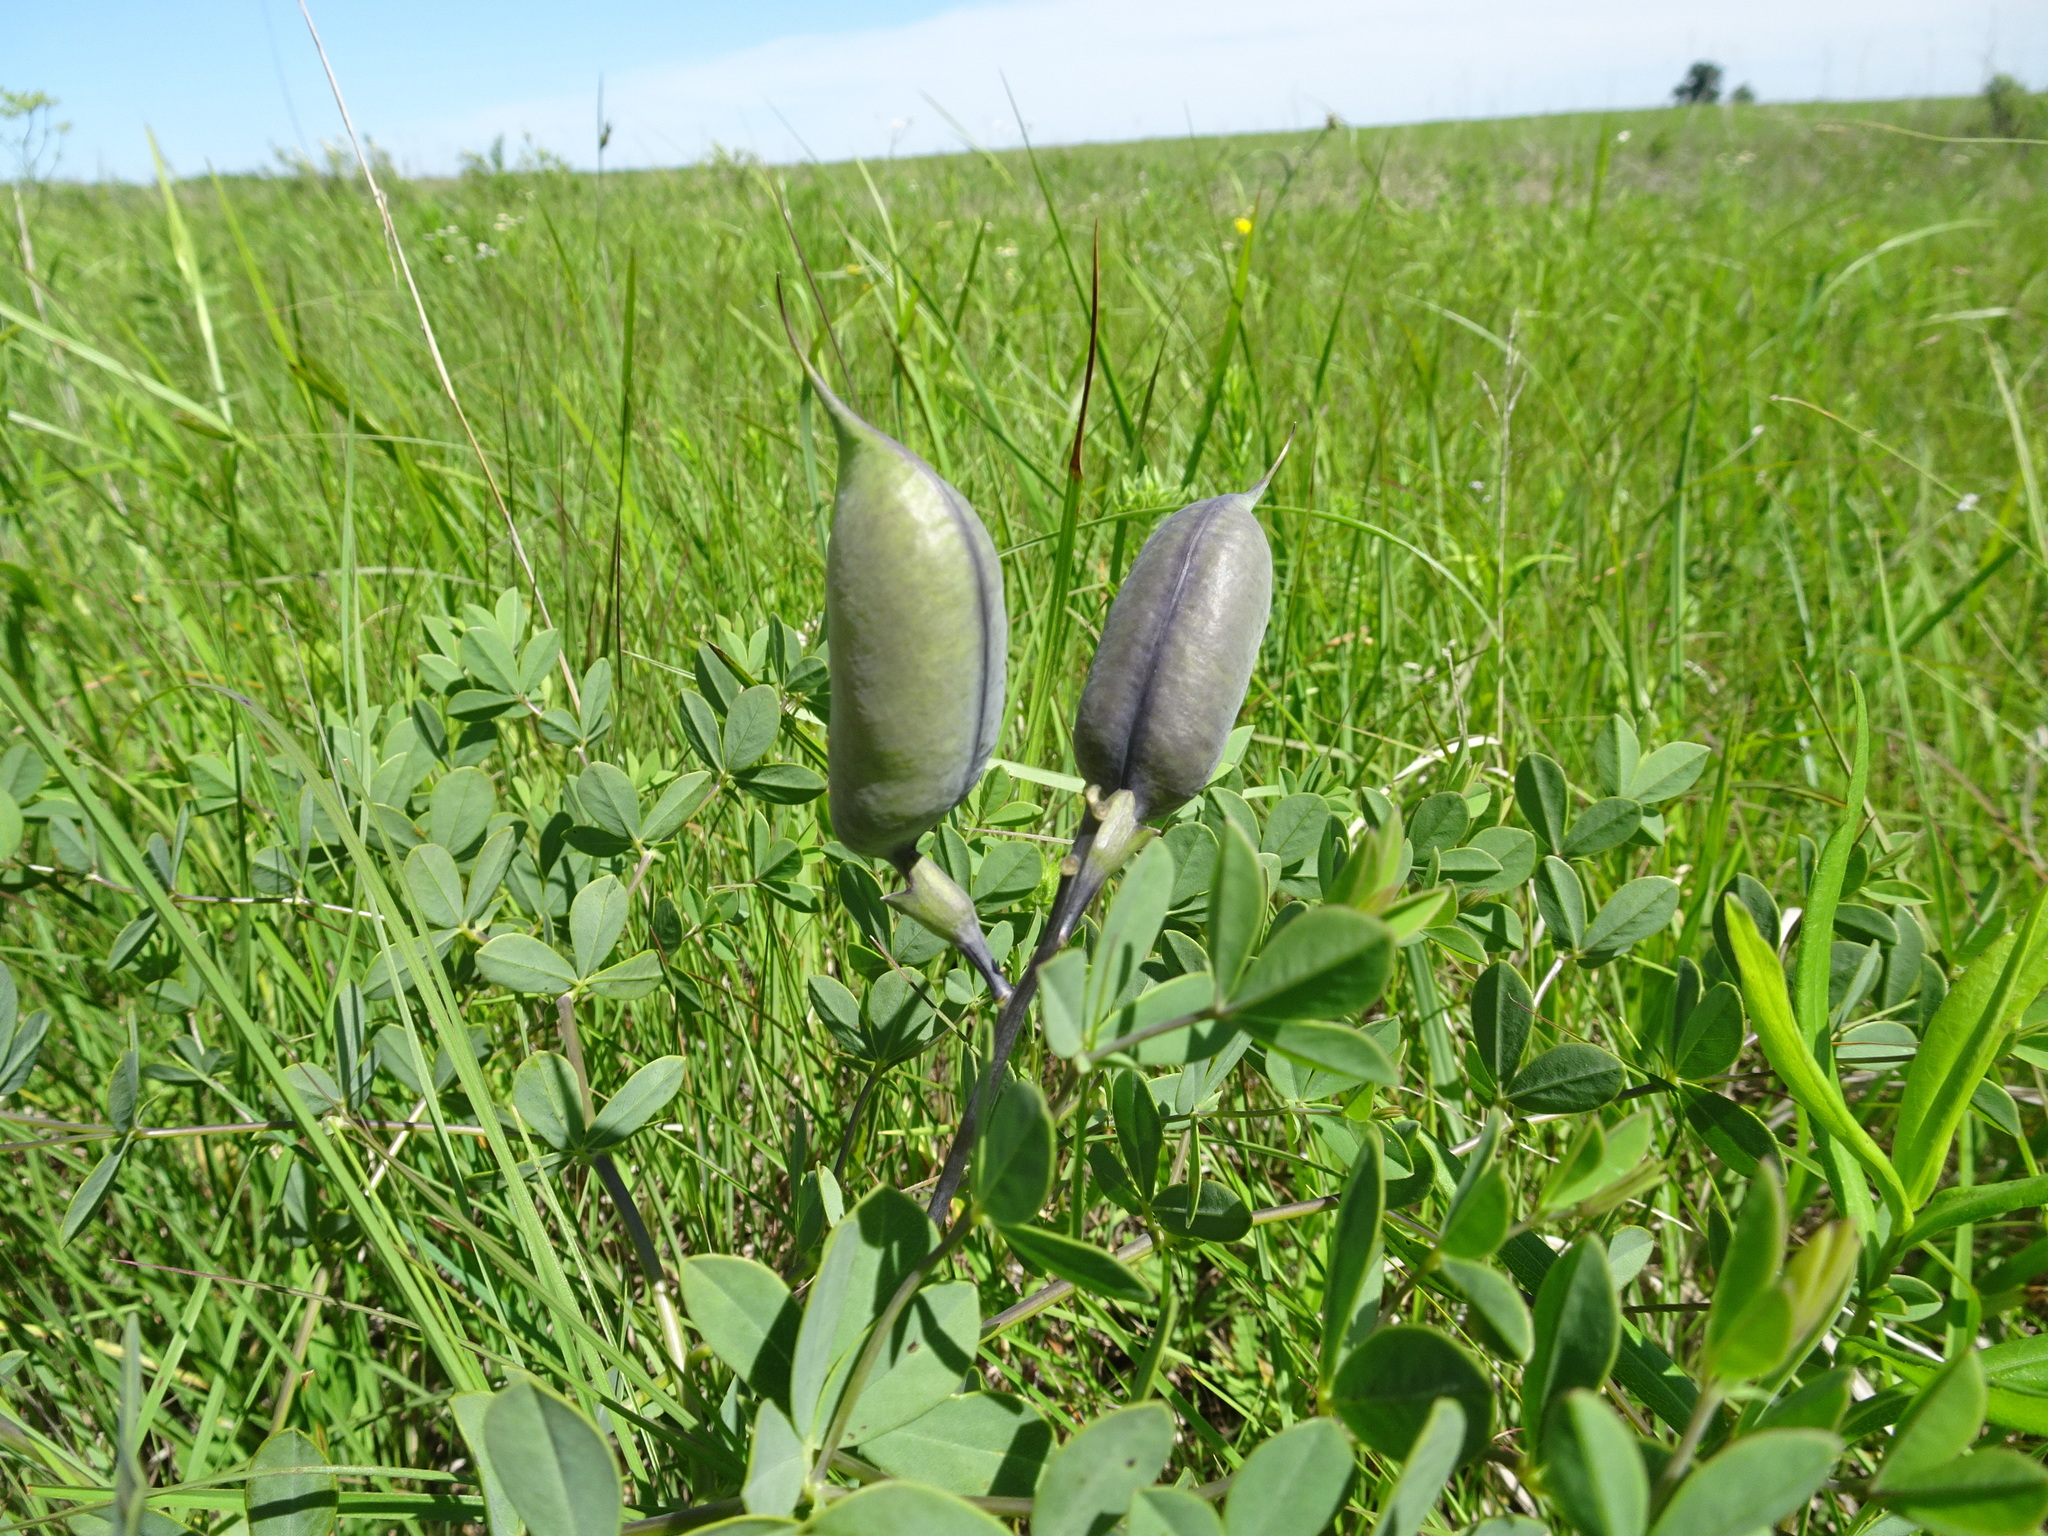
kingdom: Plantae
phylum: Tracheophyta
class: Magnoliopsida
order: Fabales
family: Fabaceae
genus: Baptisia
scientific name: Baptisia australis
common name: Blue false indigo
